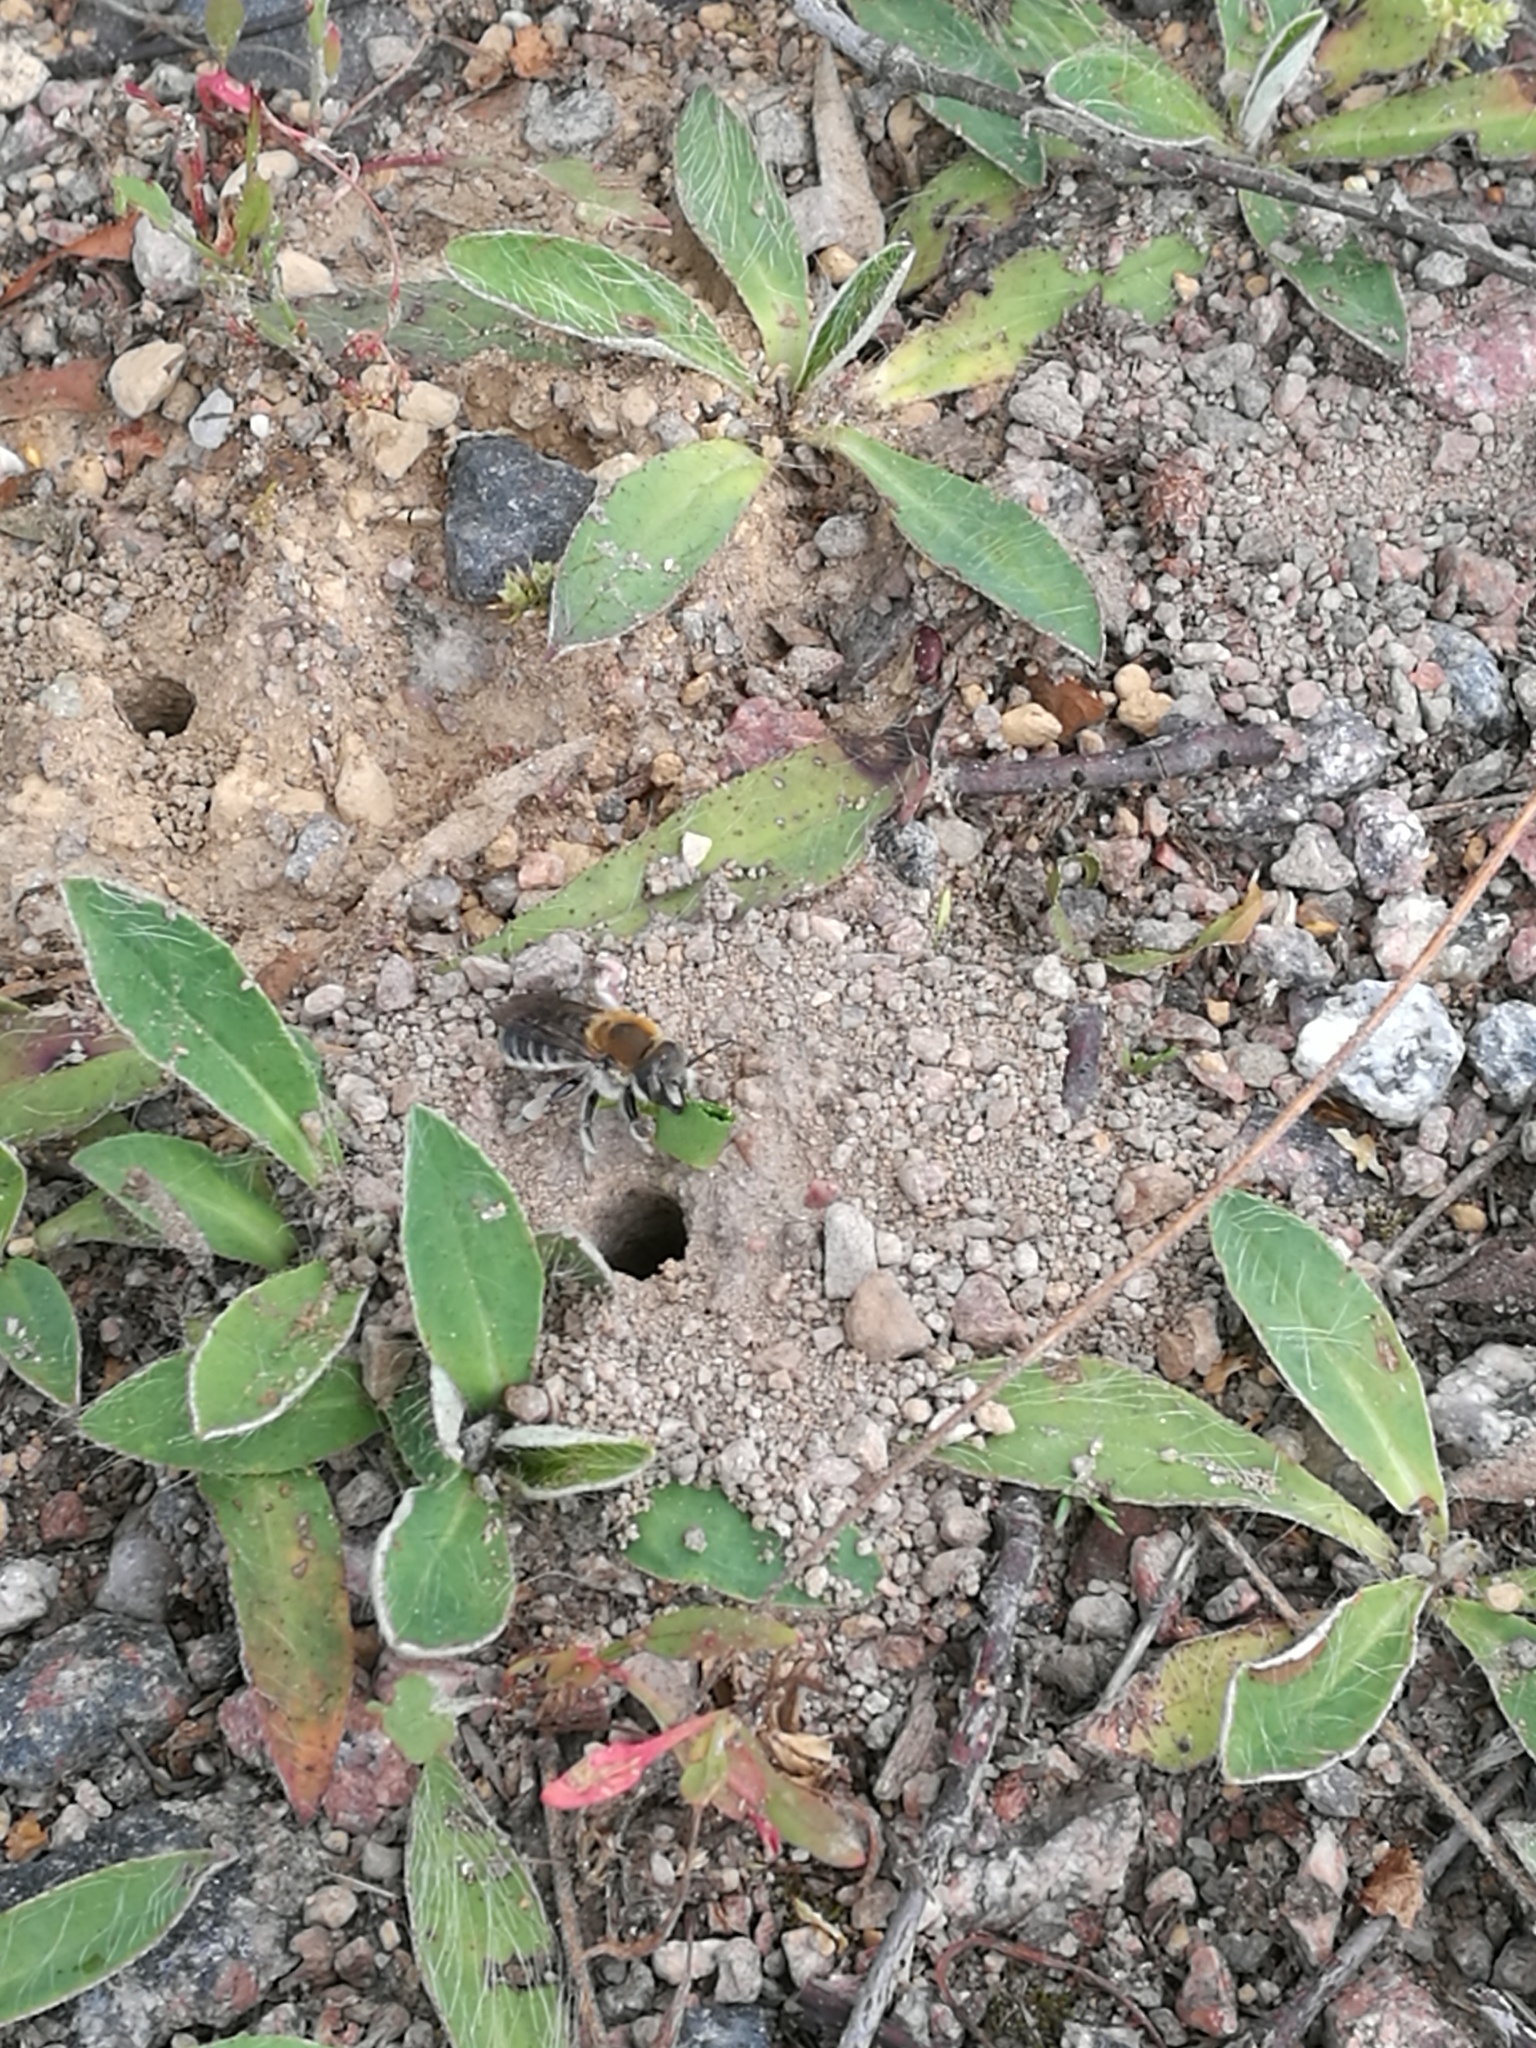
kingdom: Animalia
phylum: Arthropoda
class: Insecta
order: Hymenoptera
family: Megachilidae
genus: Trachusa
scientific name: Trachusa byssina
